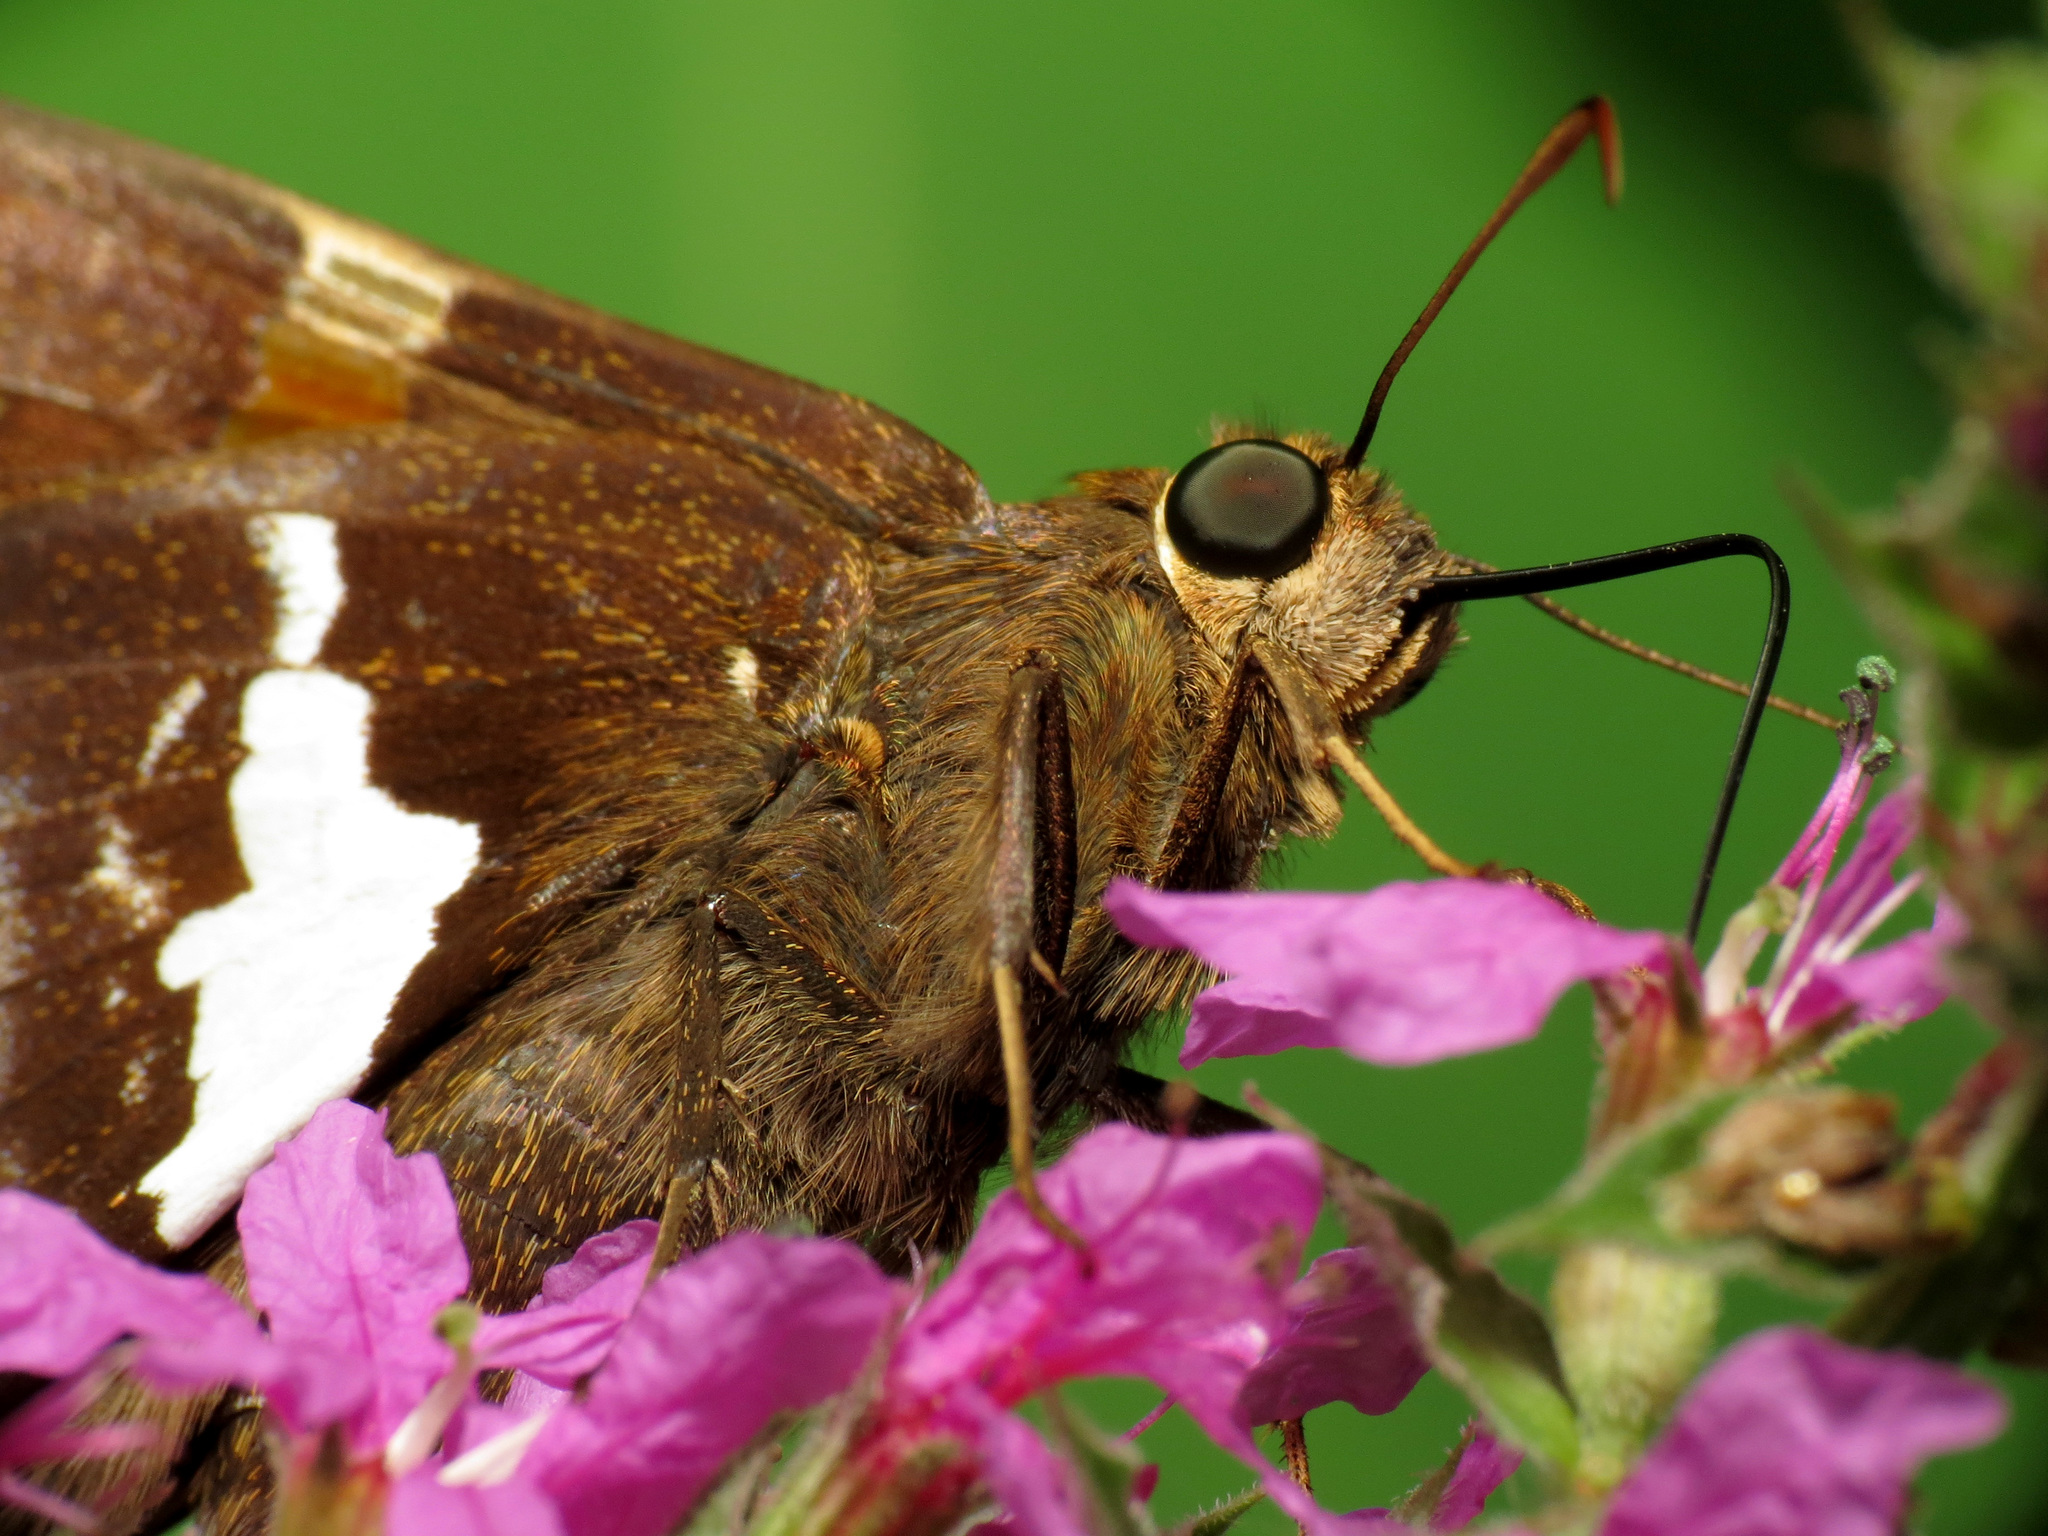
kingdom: Animalia
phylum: Arthropoda
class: Insecta
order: Lepidoptera
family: Hesperiidae
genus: Epargyreus
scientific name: Epargyreus clarus
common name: Silver-spotted skipper
